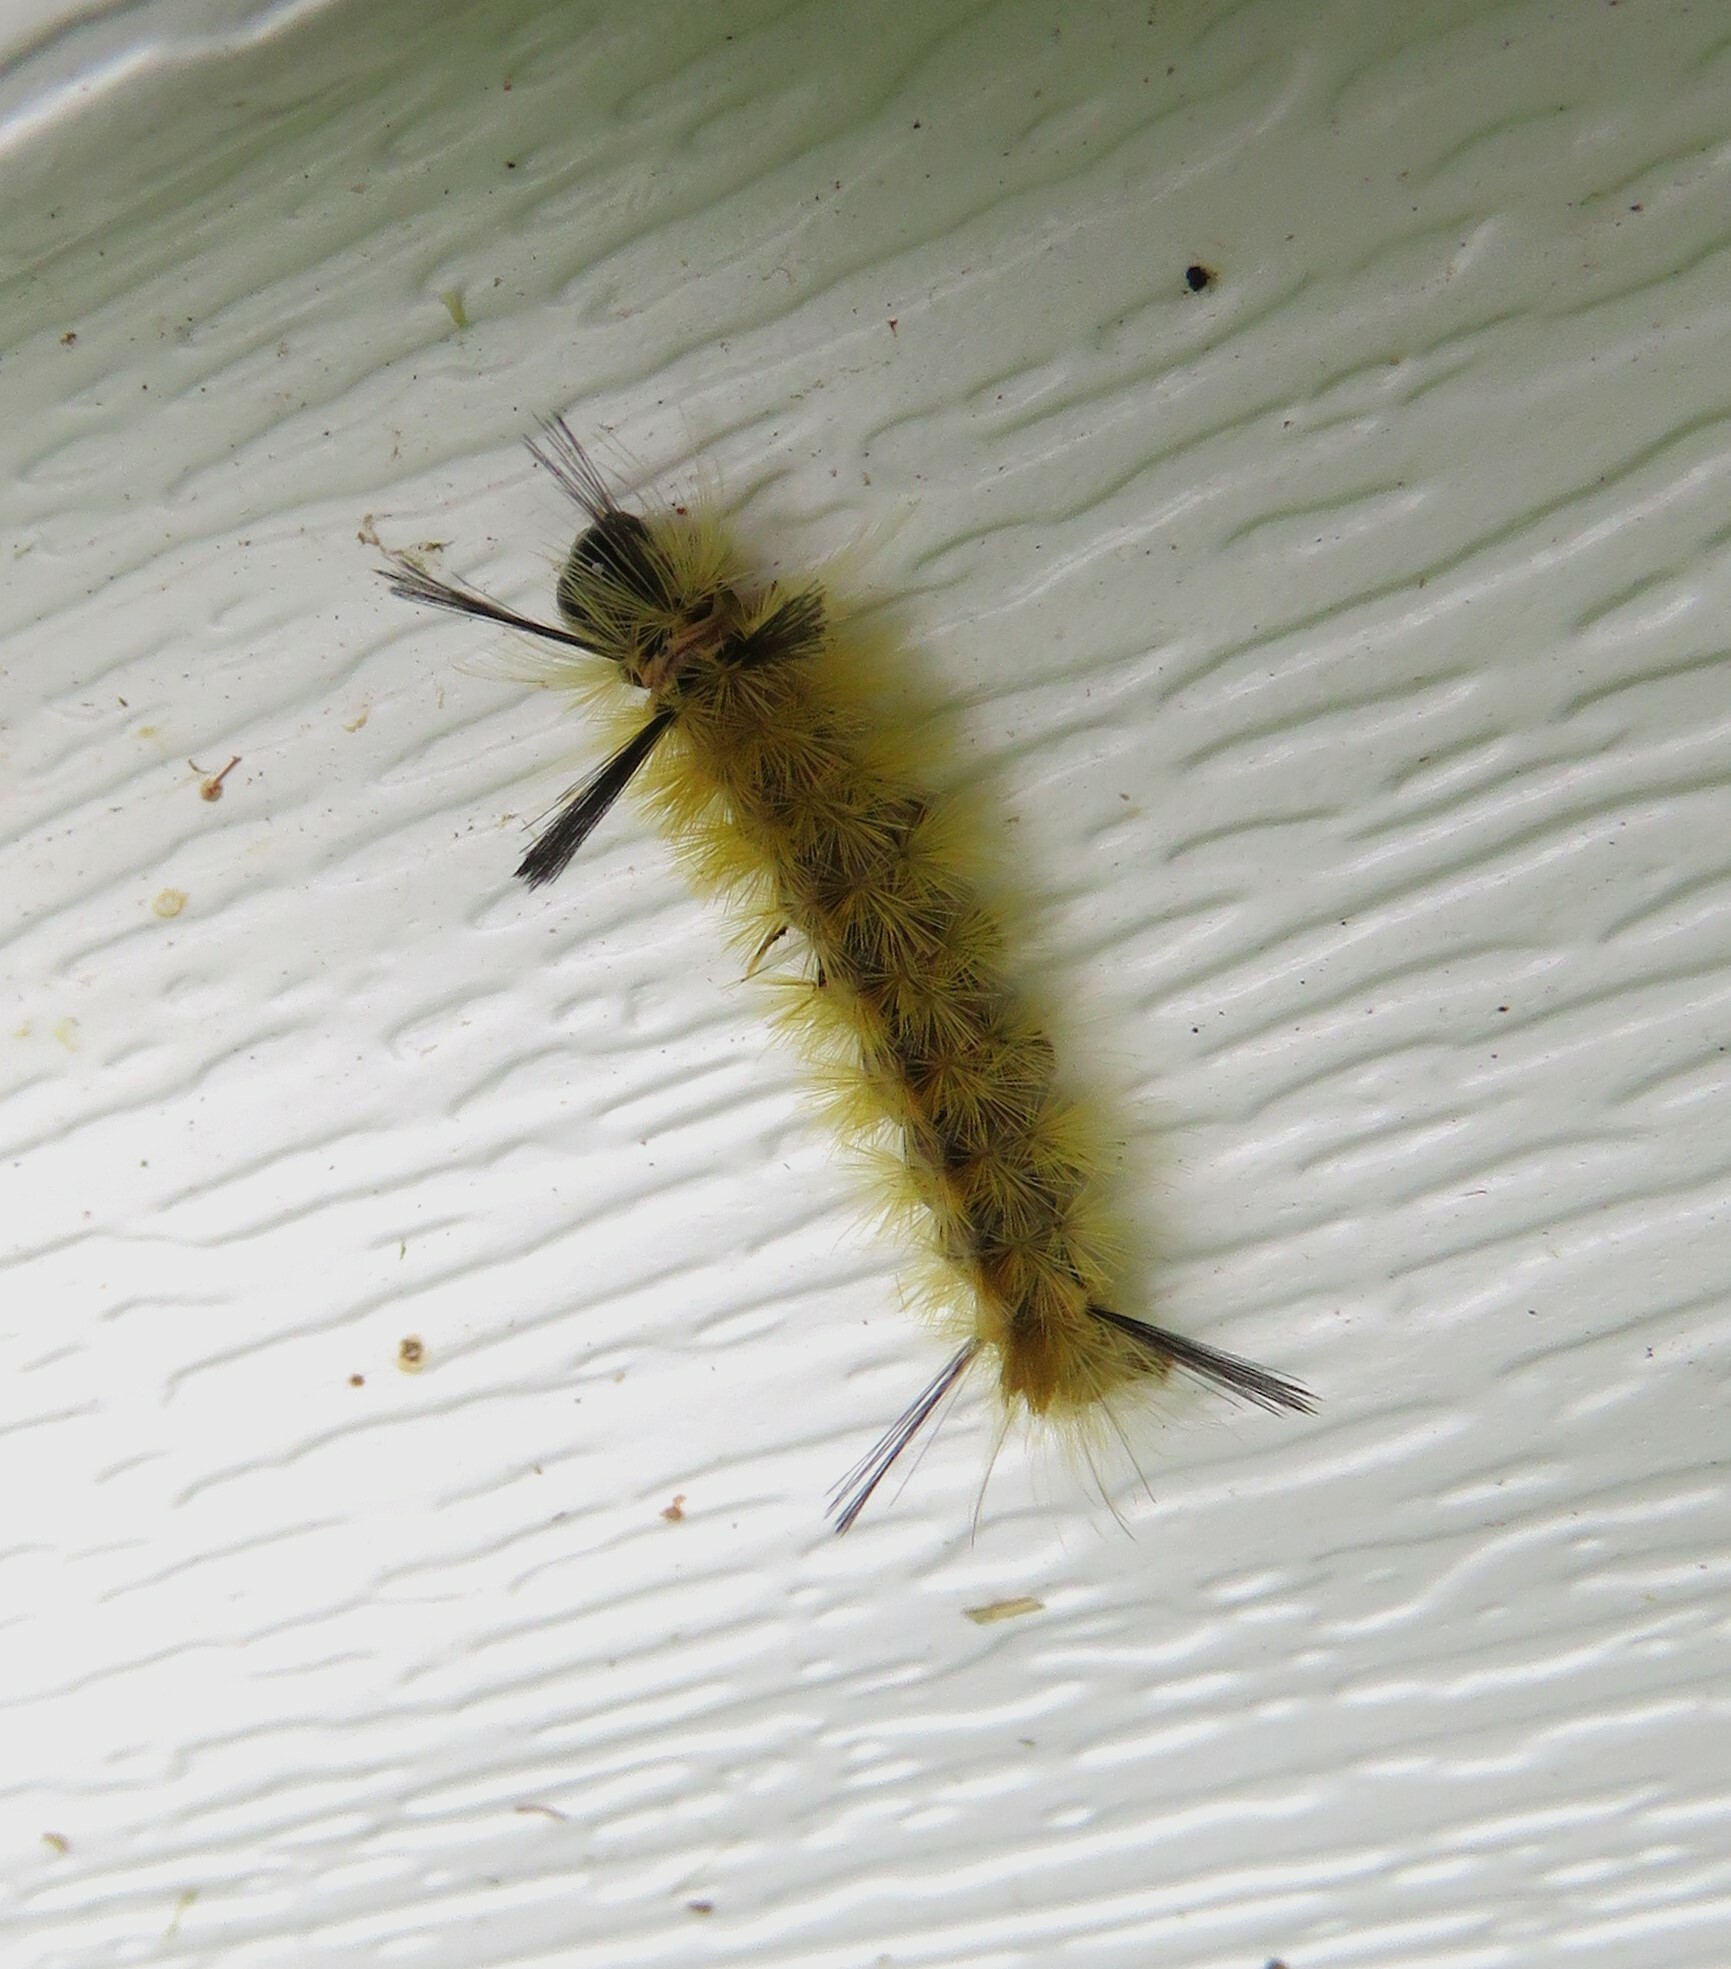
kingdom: Animalia
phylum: Arthropoda
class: Insecta
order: Lepidoptera
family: Erebidae
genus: Halysidota
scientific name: Halysidota tessellaris
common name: Banded tussock moth
